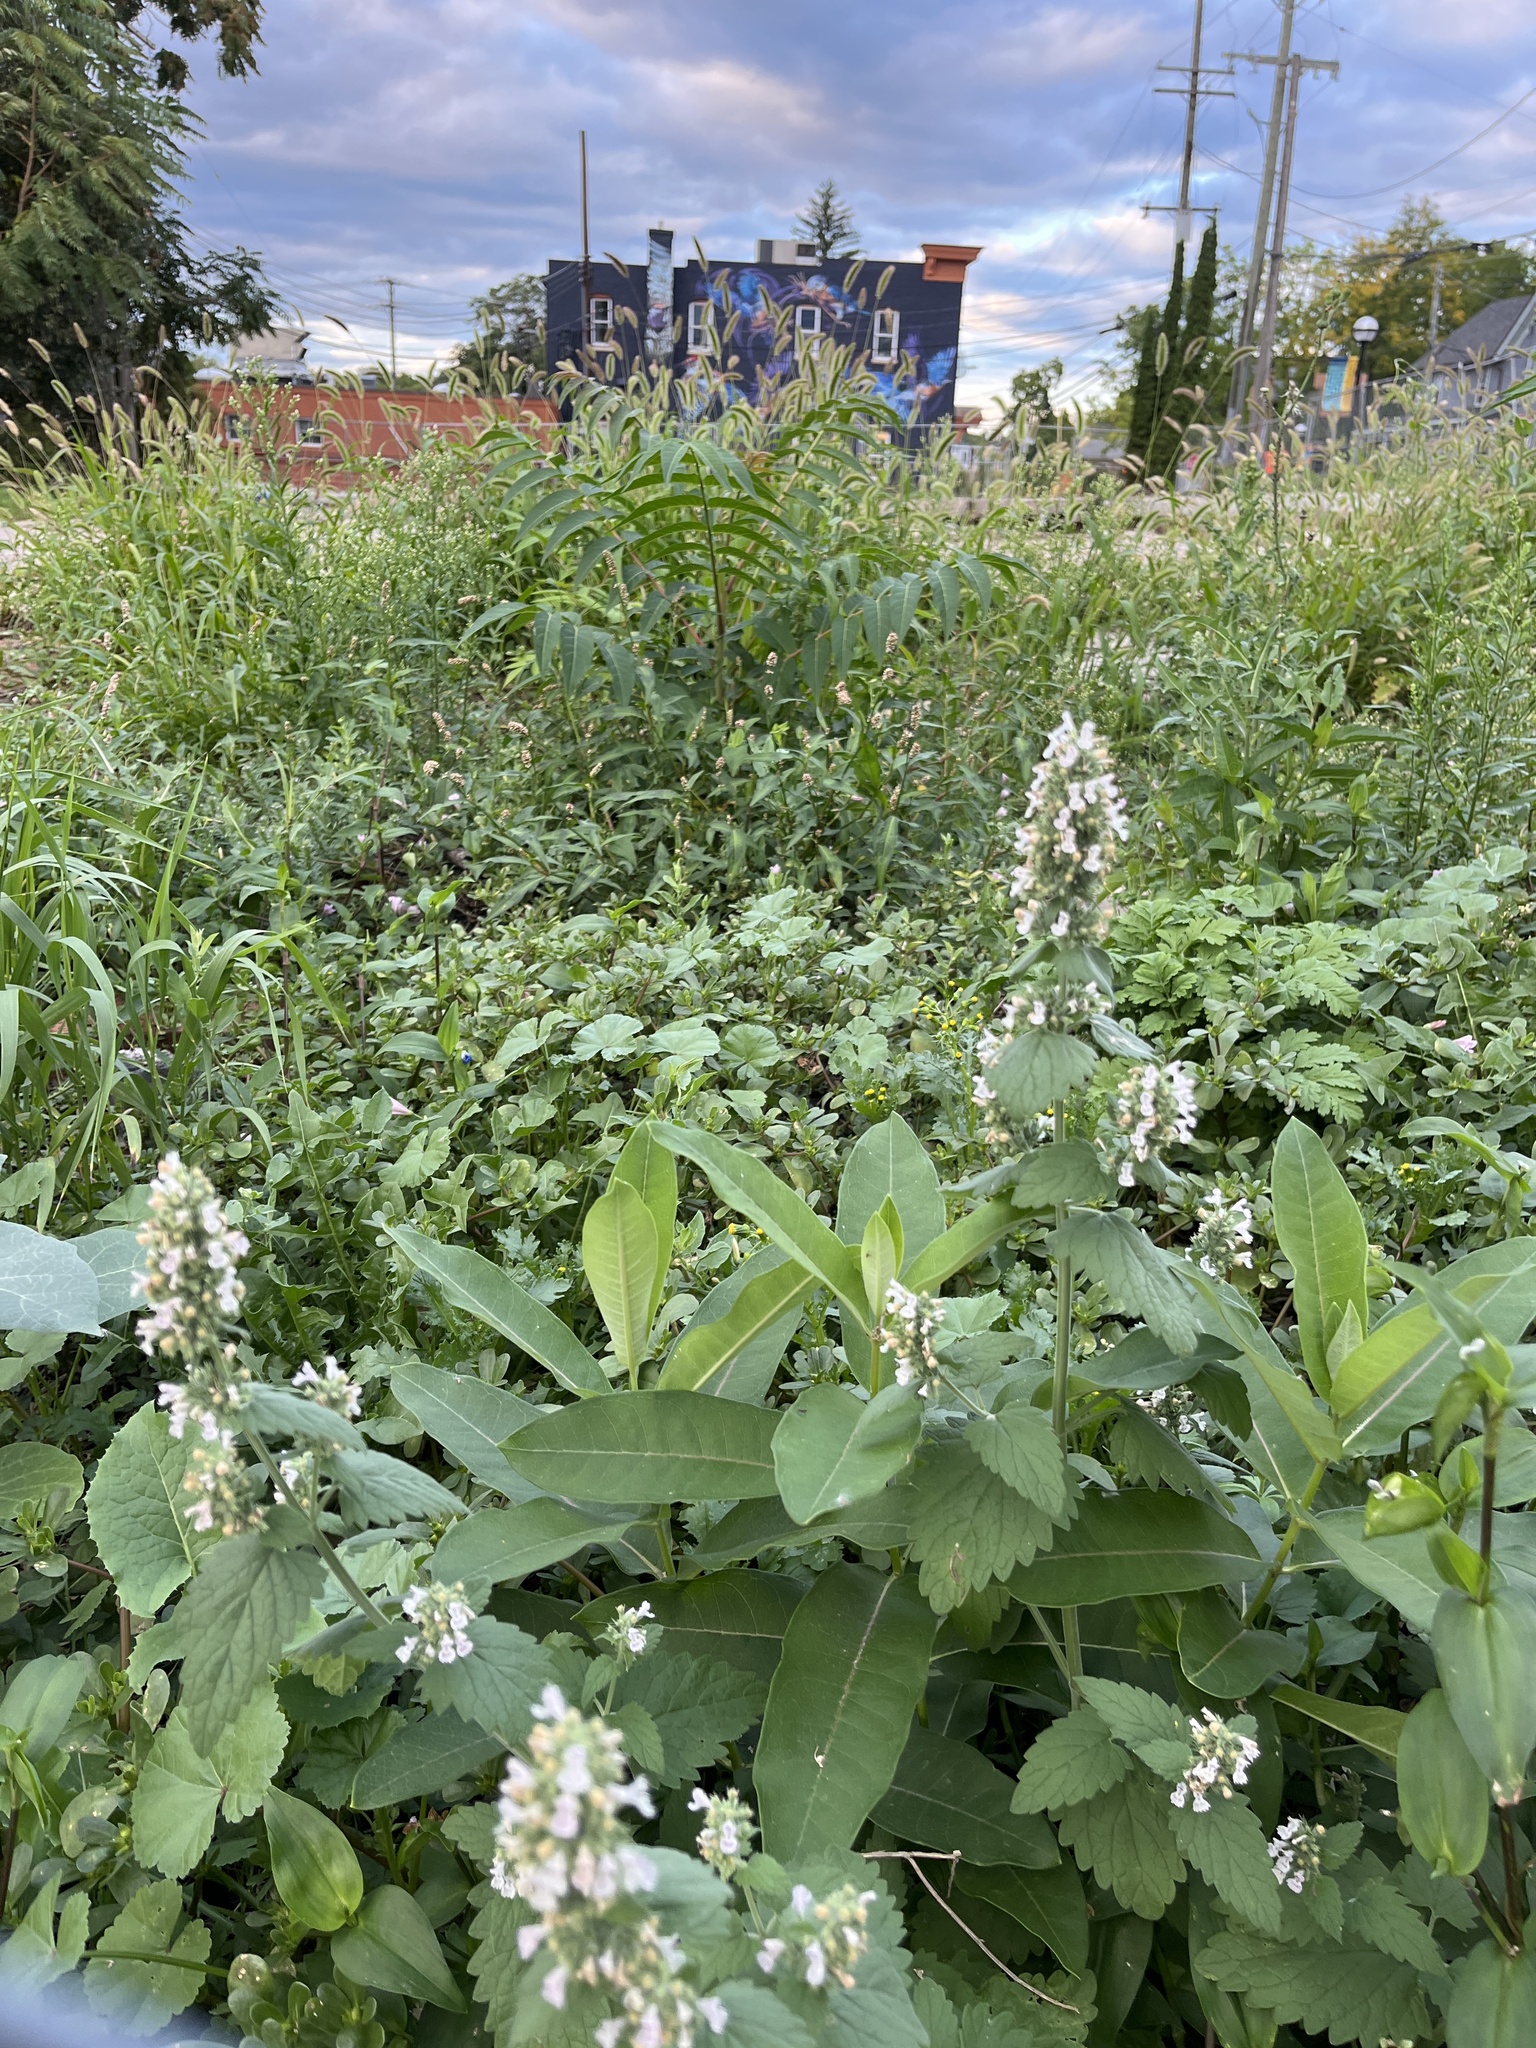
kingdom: Plantae
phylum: Tracheophyta
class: Magnoliopsida
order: Lamiales
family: Lamiaceae
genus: Nepeta
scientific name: Nepeta cataria
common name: Catnip
